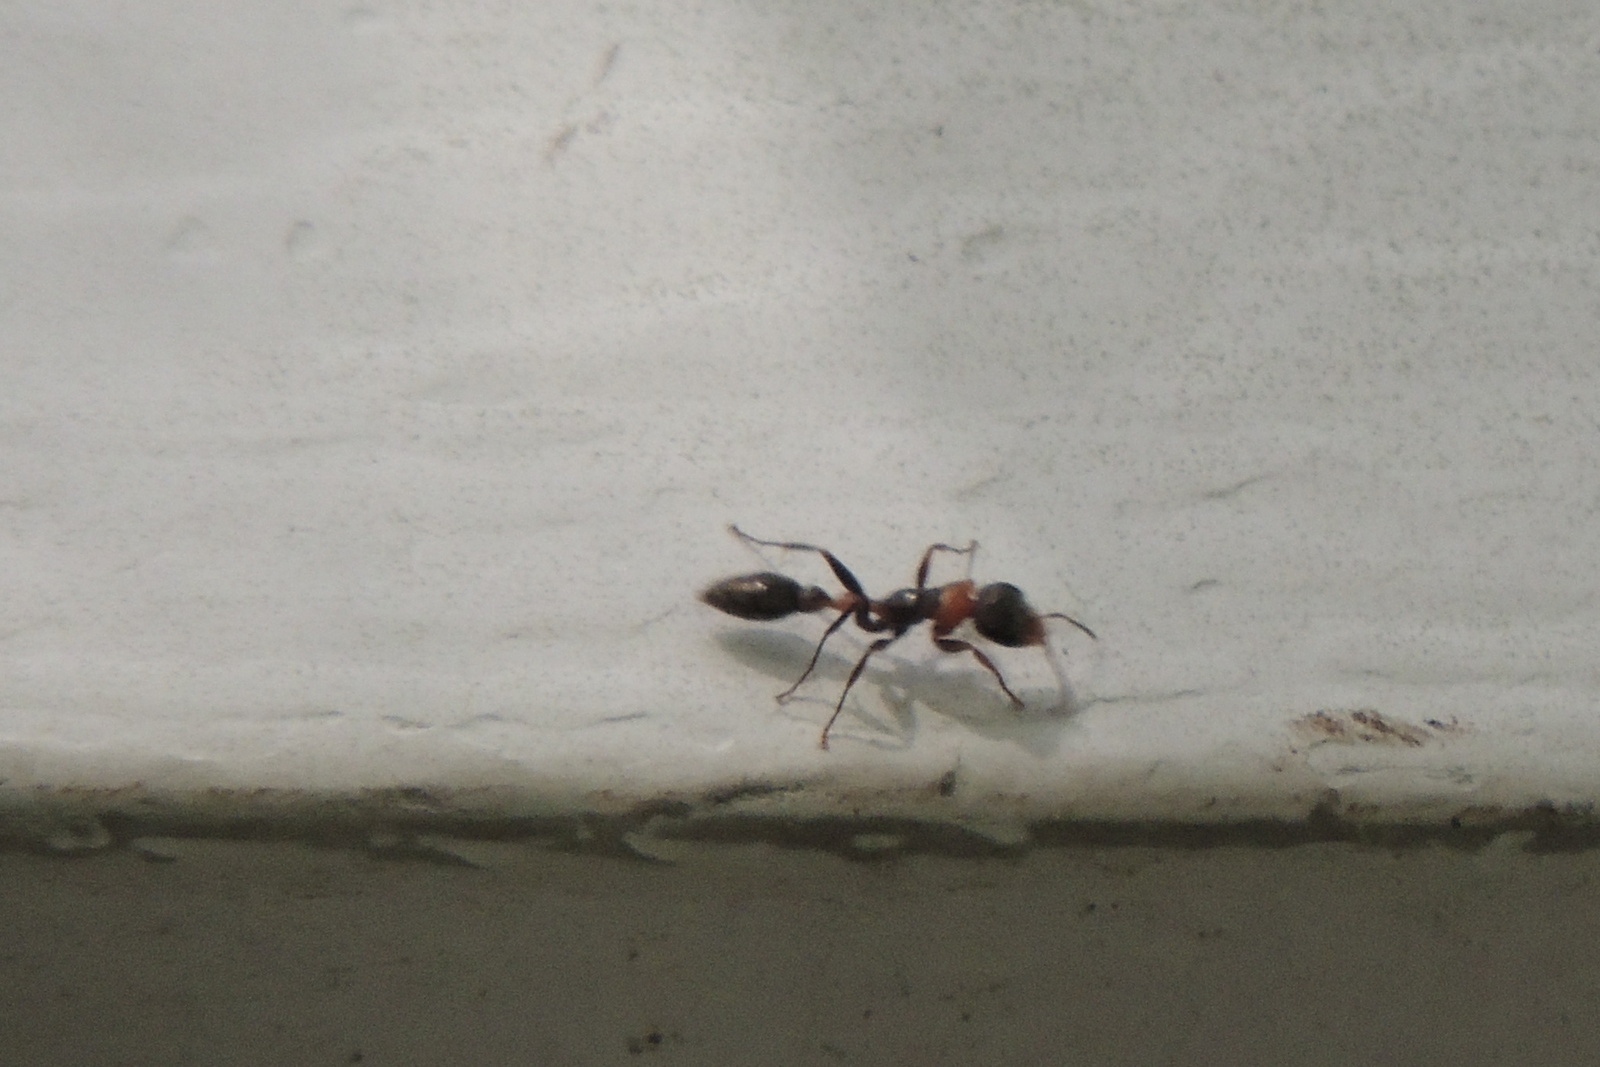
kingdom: Animalia
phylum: Arthropoda
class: Insecta
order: Hymenoptera
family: Formicidae
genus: Pseudomyrmex
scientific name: Pseudomyrmex gracilis
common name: Graceful twig ant
